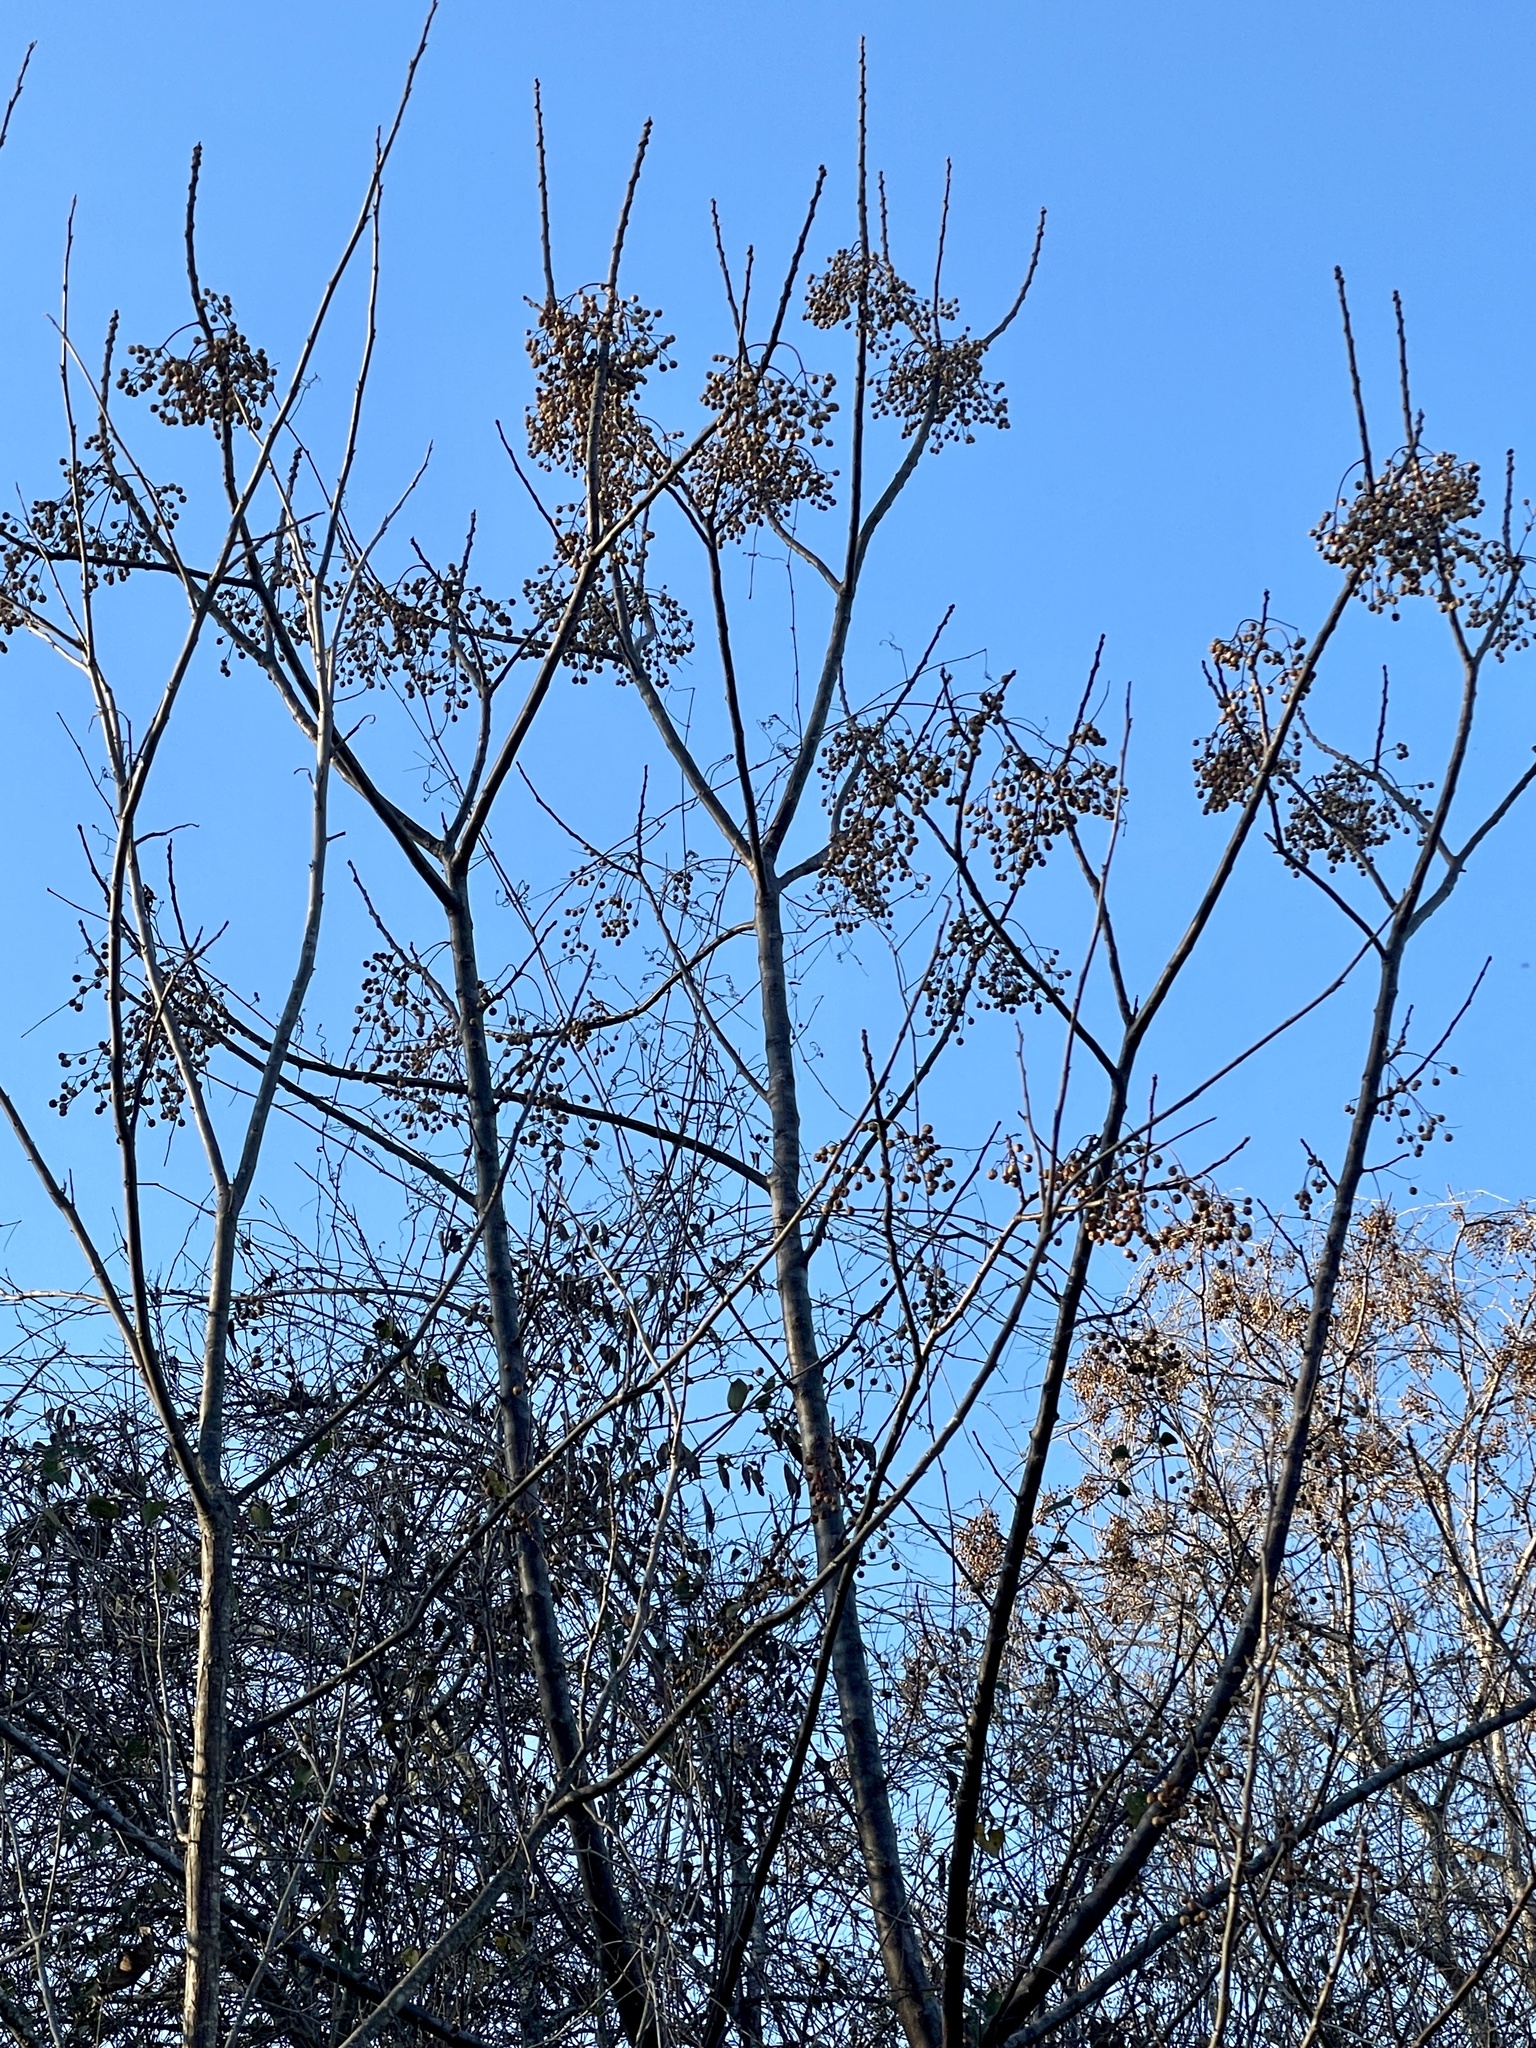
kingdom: Plantae
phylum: Tracheophyta
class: Magnoliopsida
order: Sapindales
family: Meliaceae
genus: Melia
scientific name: Melia azedarach
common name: Chinaberrytree
